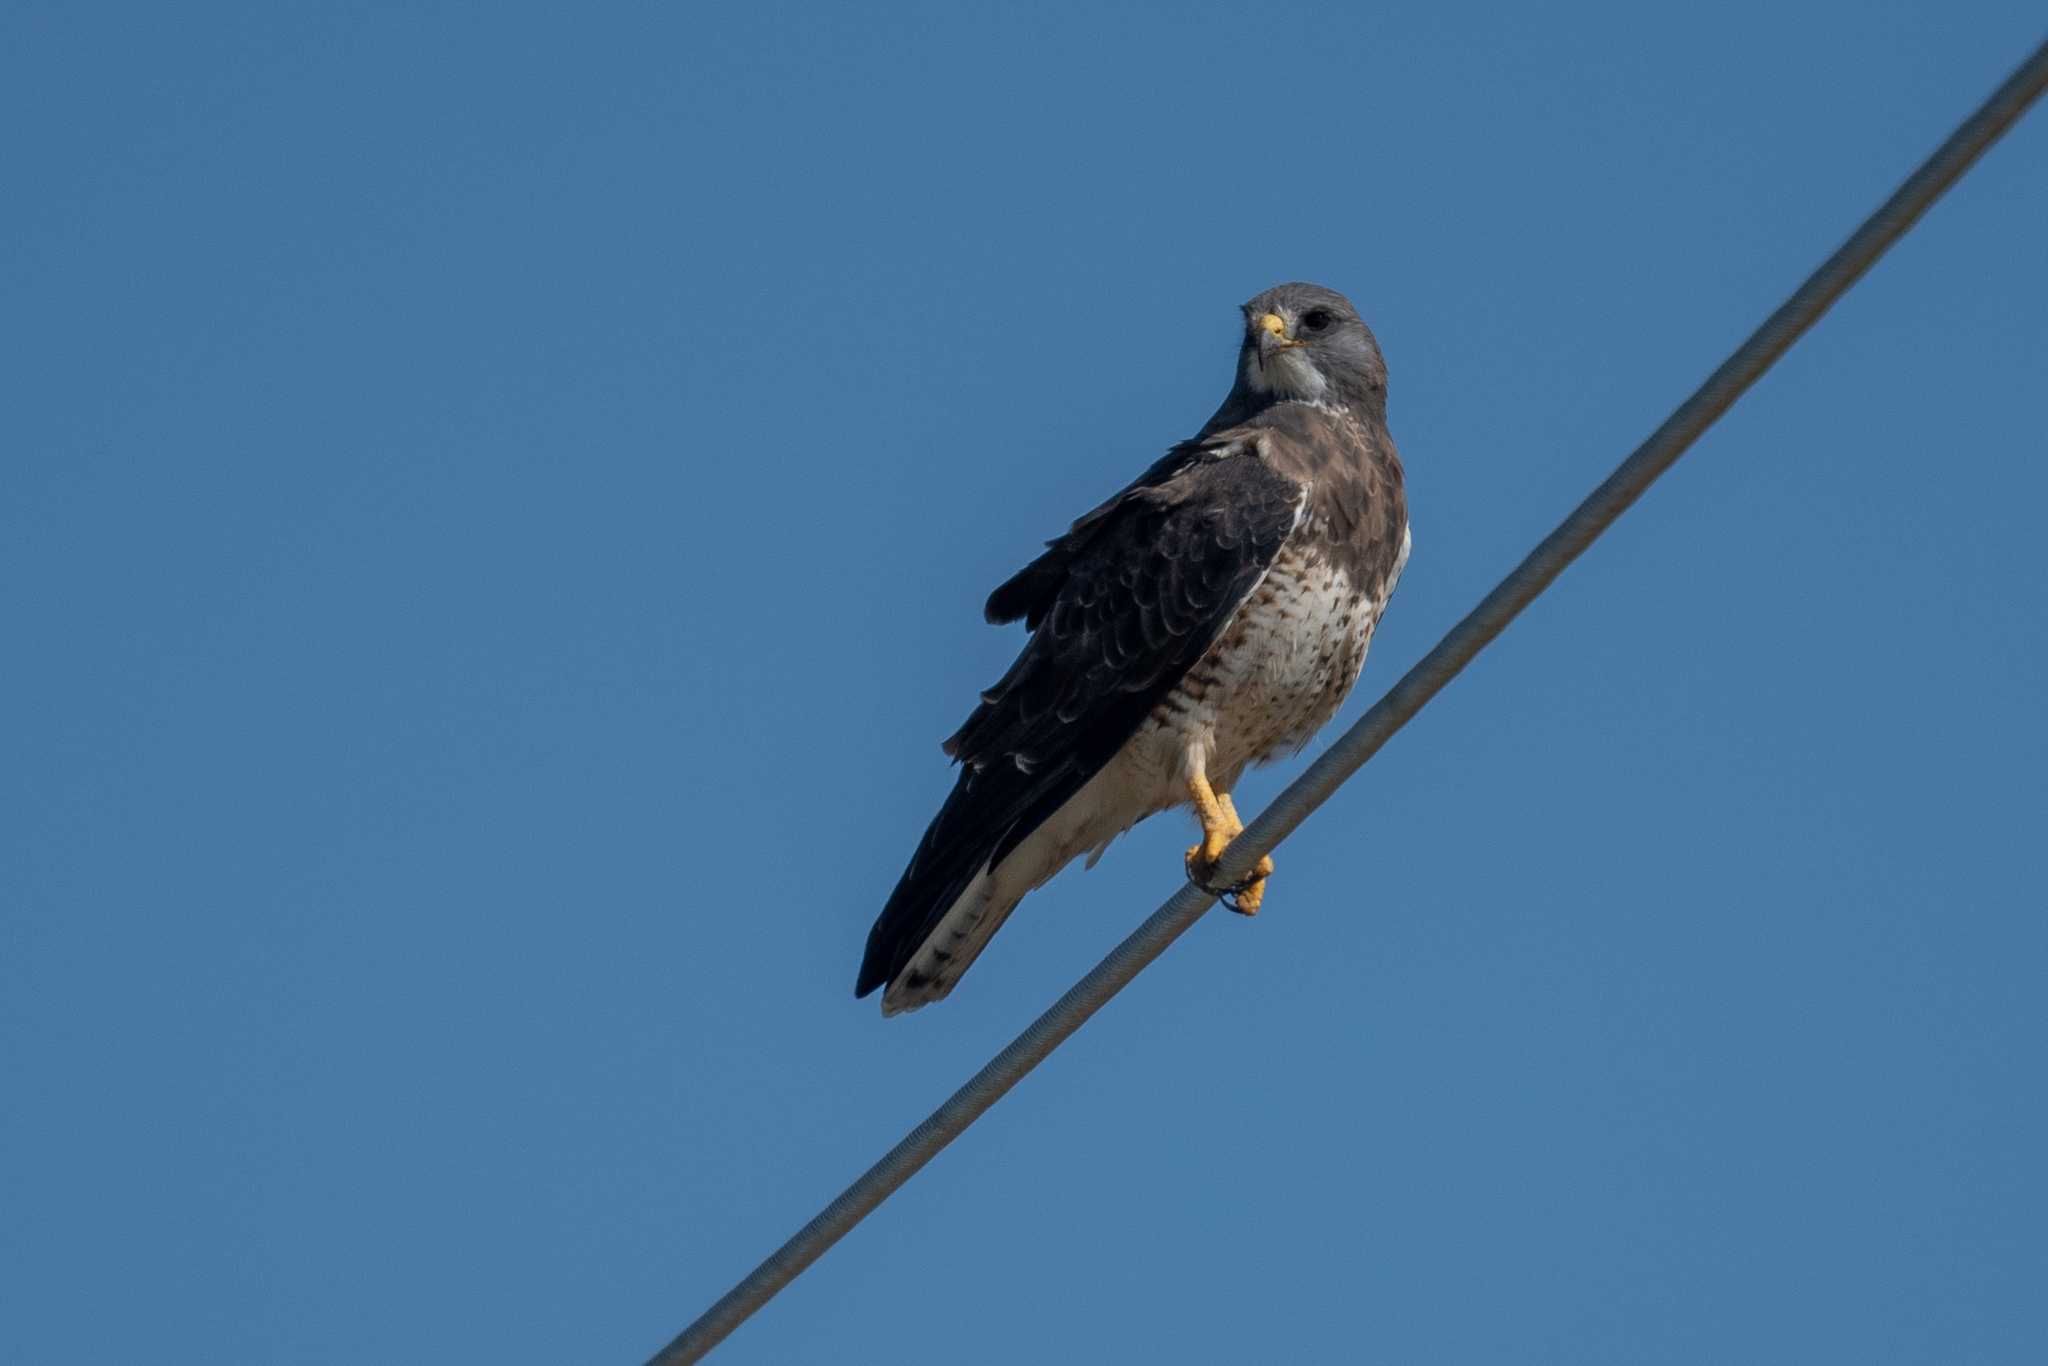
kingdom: Animalia
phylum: Chordata
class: Aves
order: Accipitriformes
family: Accipitridae
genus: Buteo
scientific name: Buteo swainsoni
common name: Swainson's hawk
